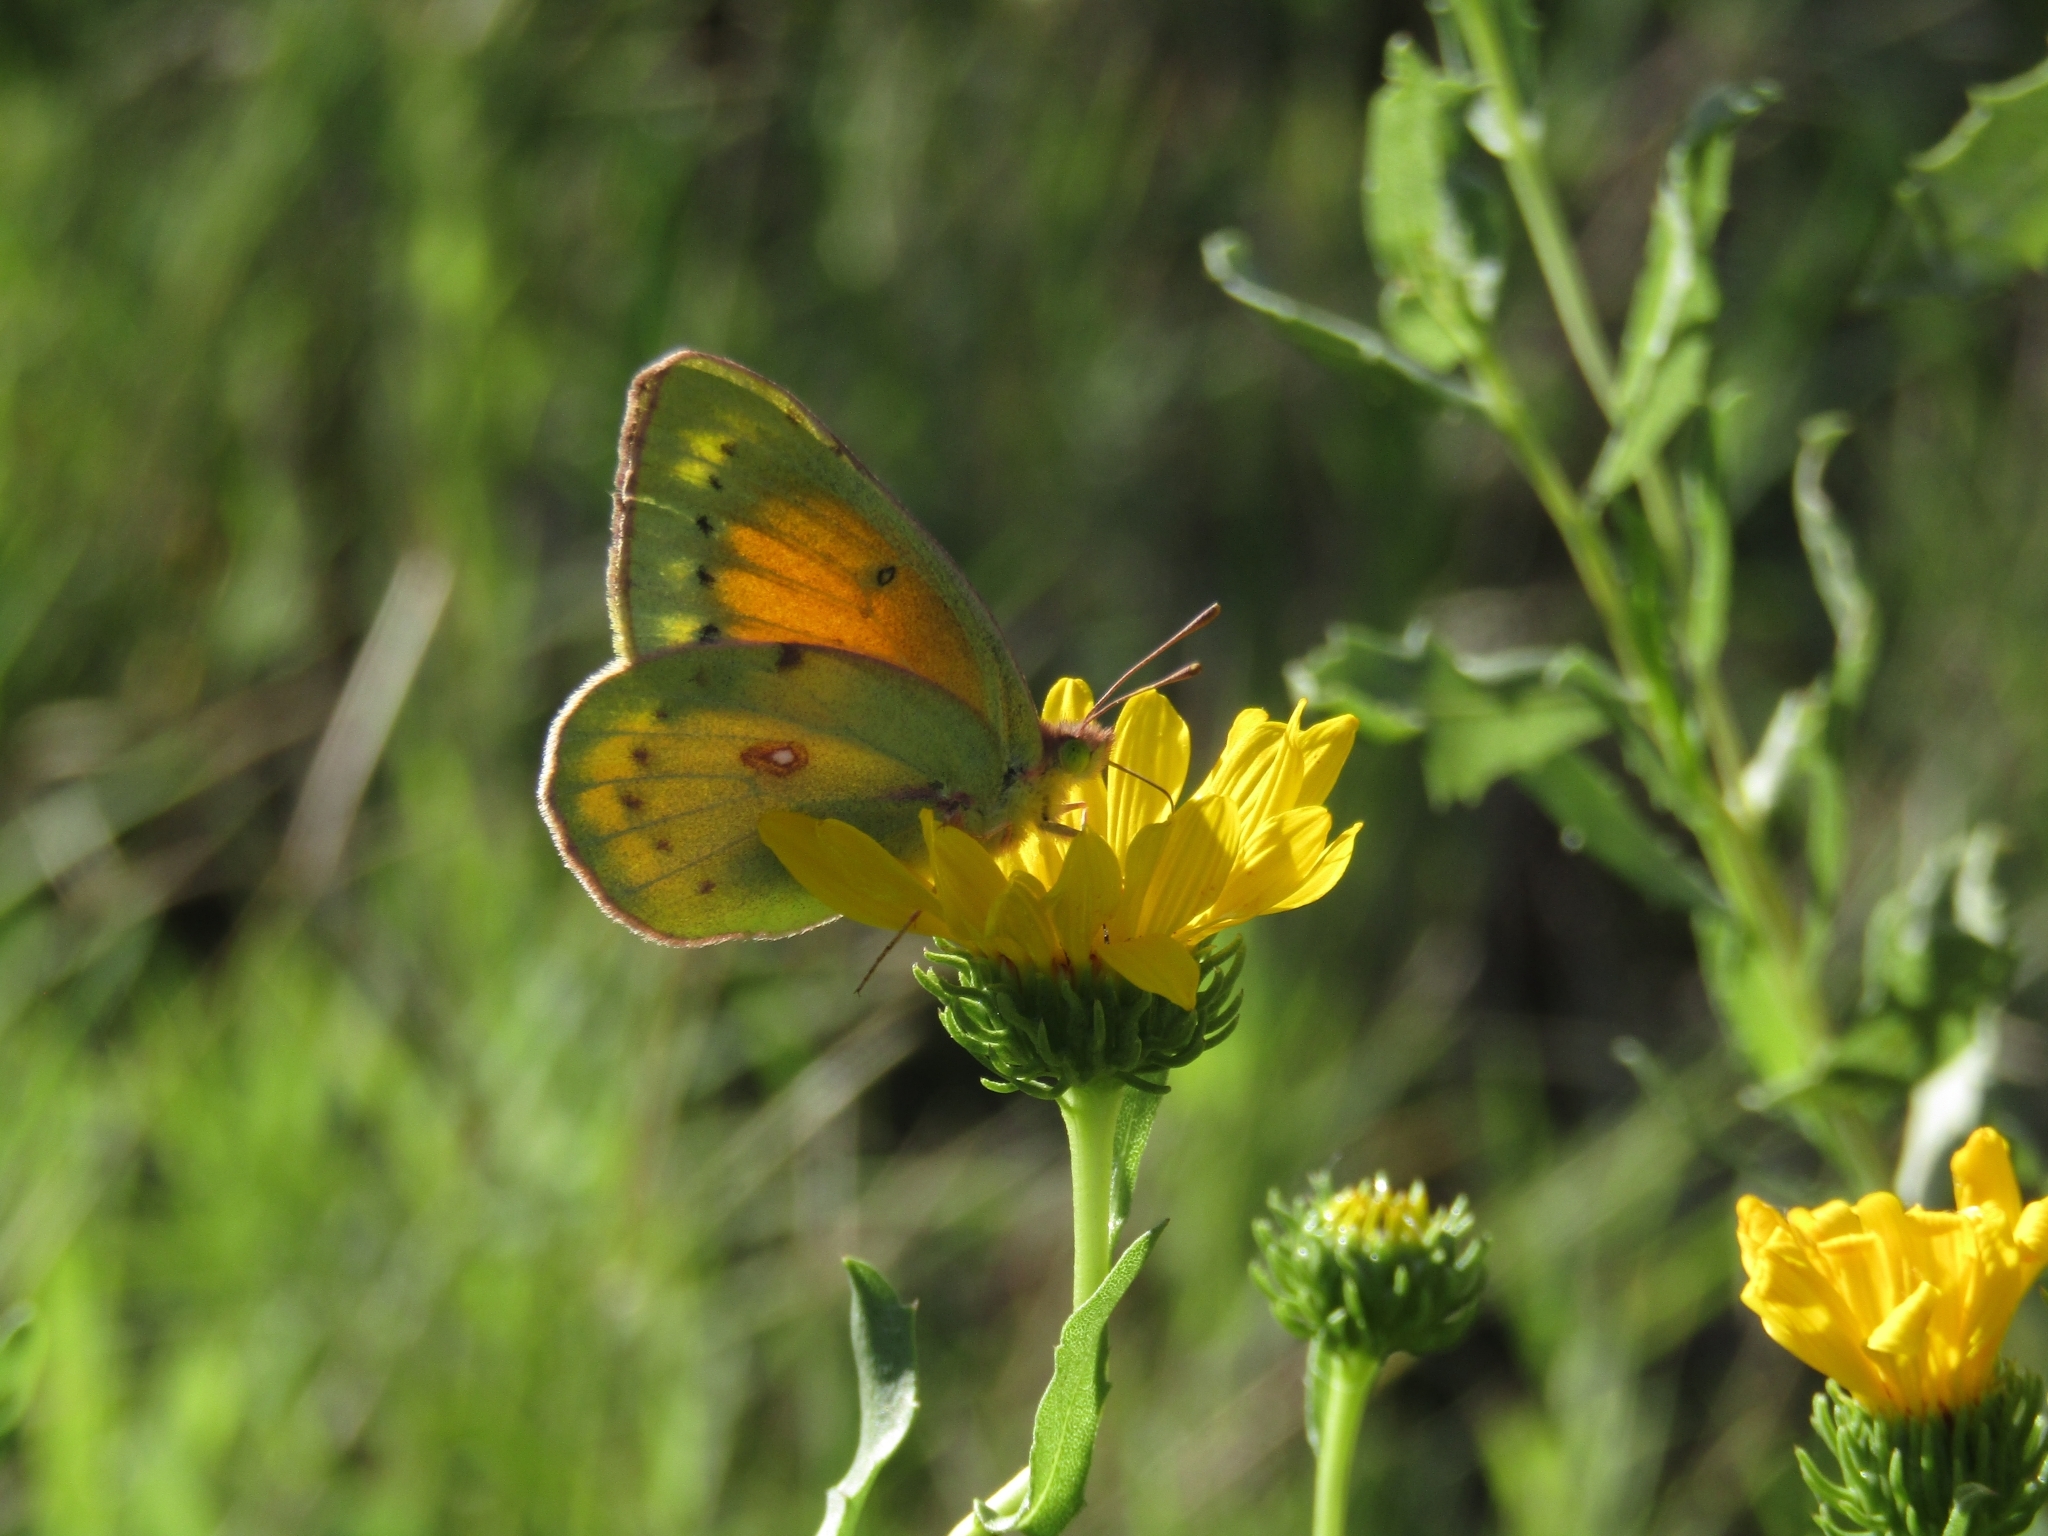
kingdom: Animalia
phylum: Arthropoda
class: Insecta
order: Lepidoptera
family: Pieridae
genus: Colias
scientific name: Colias lesbia
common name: Lesbia clouded yellow
